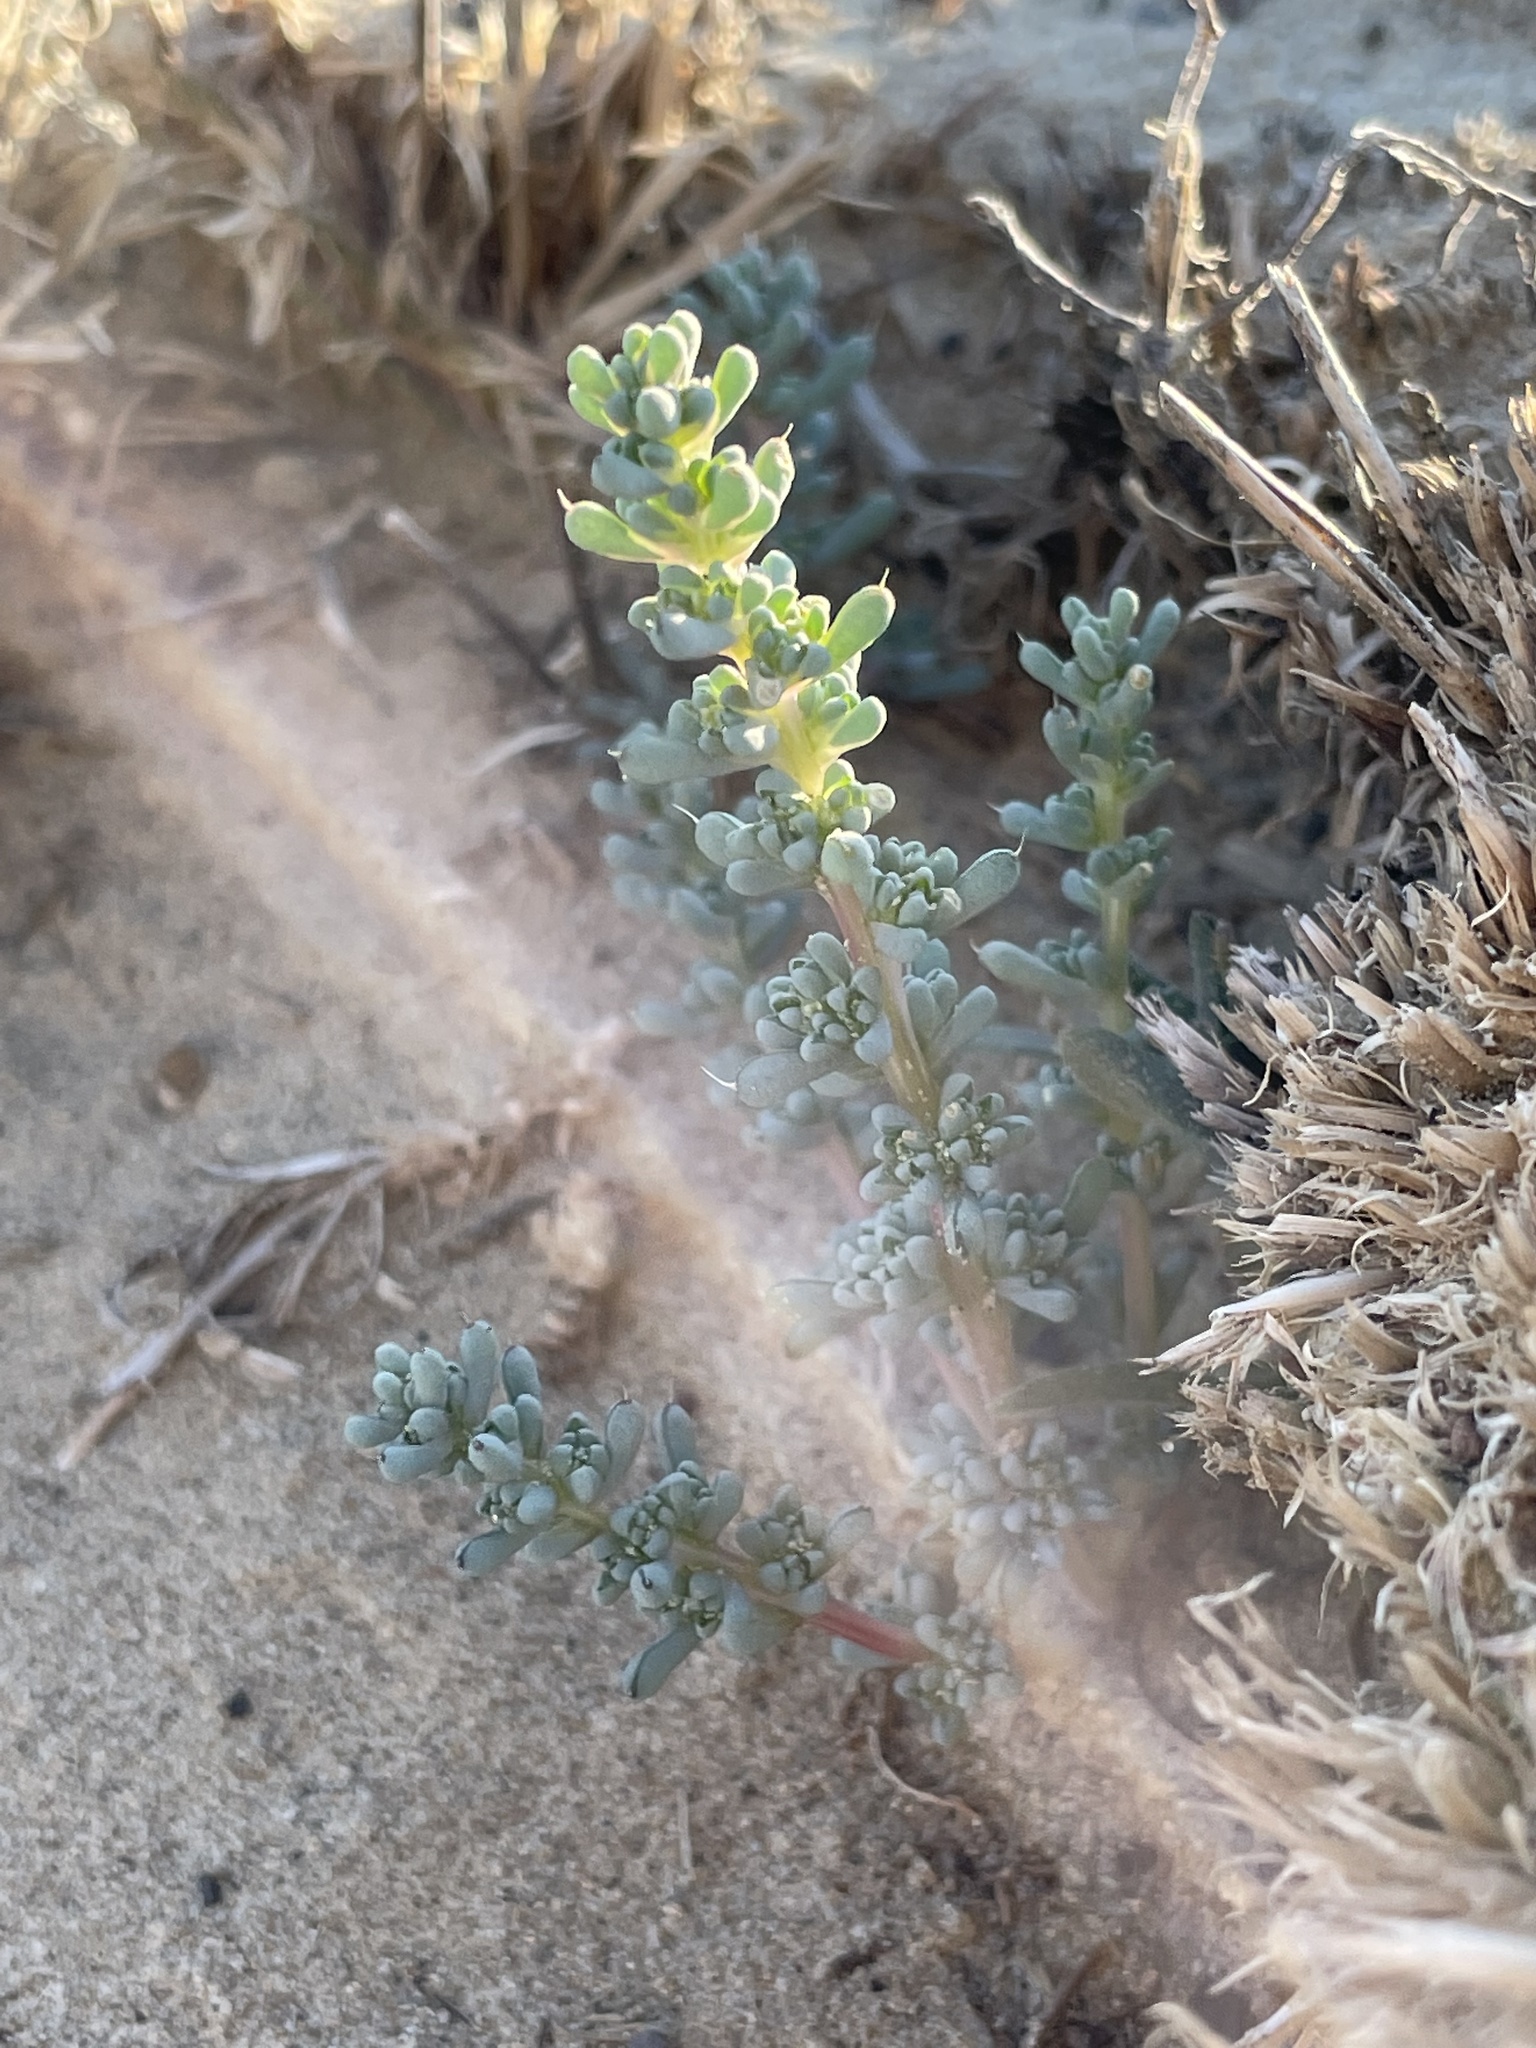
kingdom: Plantae
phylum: Tracheophyta
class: Magnoliopsida
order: Caryophyllales
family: Amaranthaceae
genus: Halogeton
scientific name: Halogeton glomeratus
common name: Saltlover
